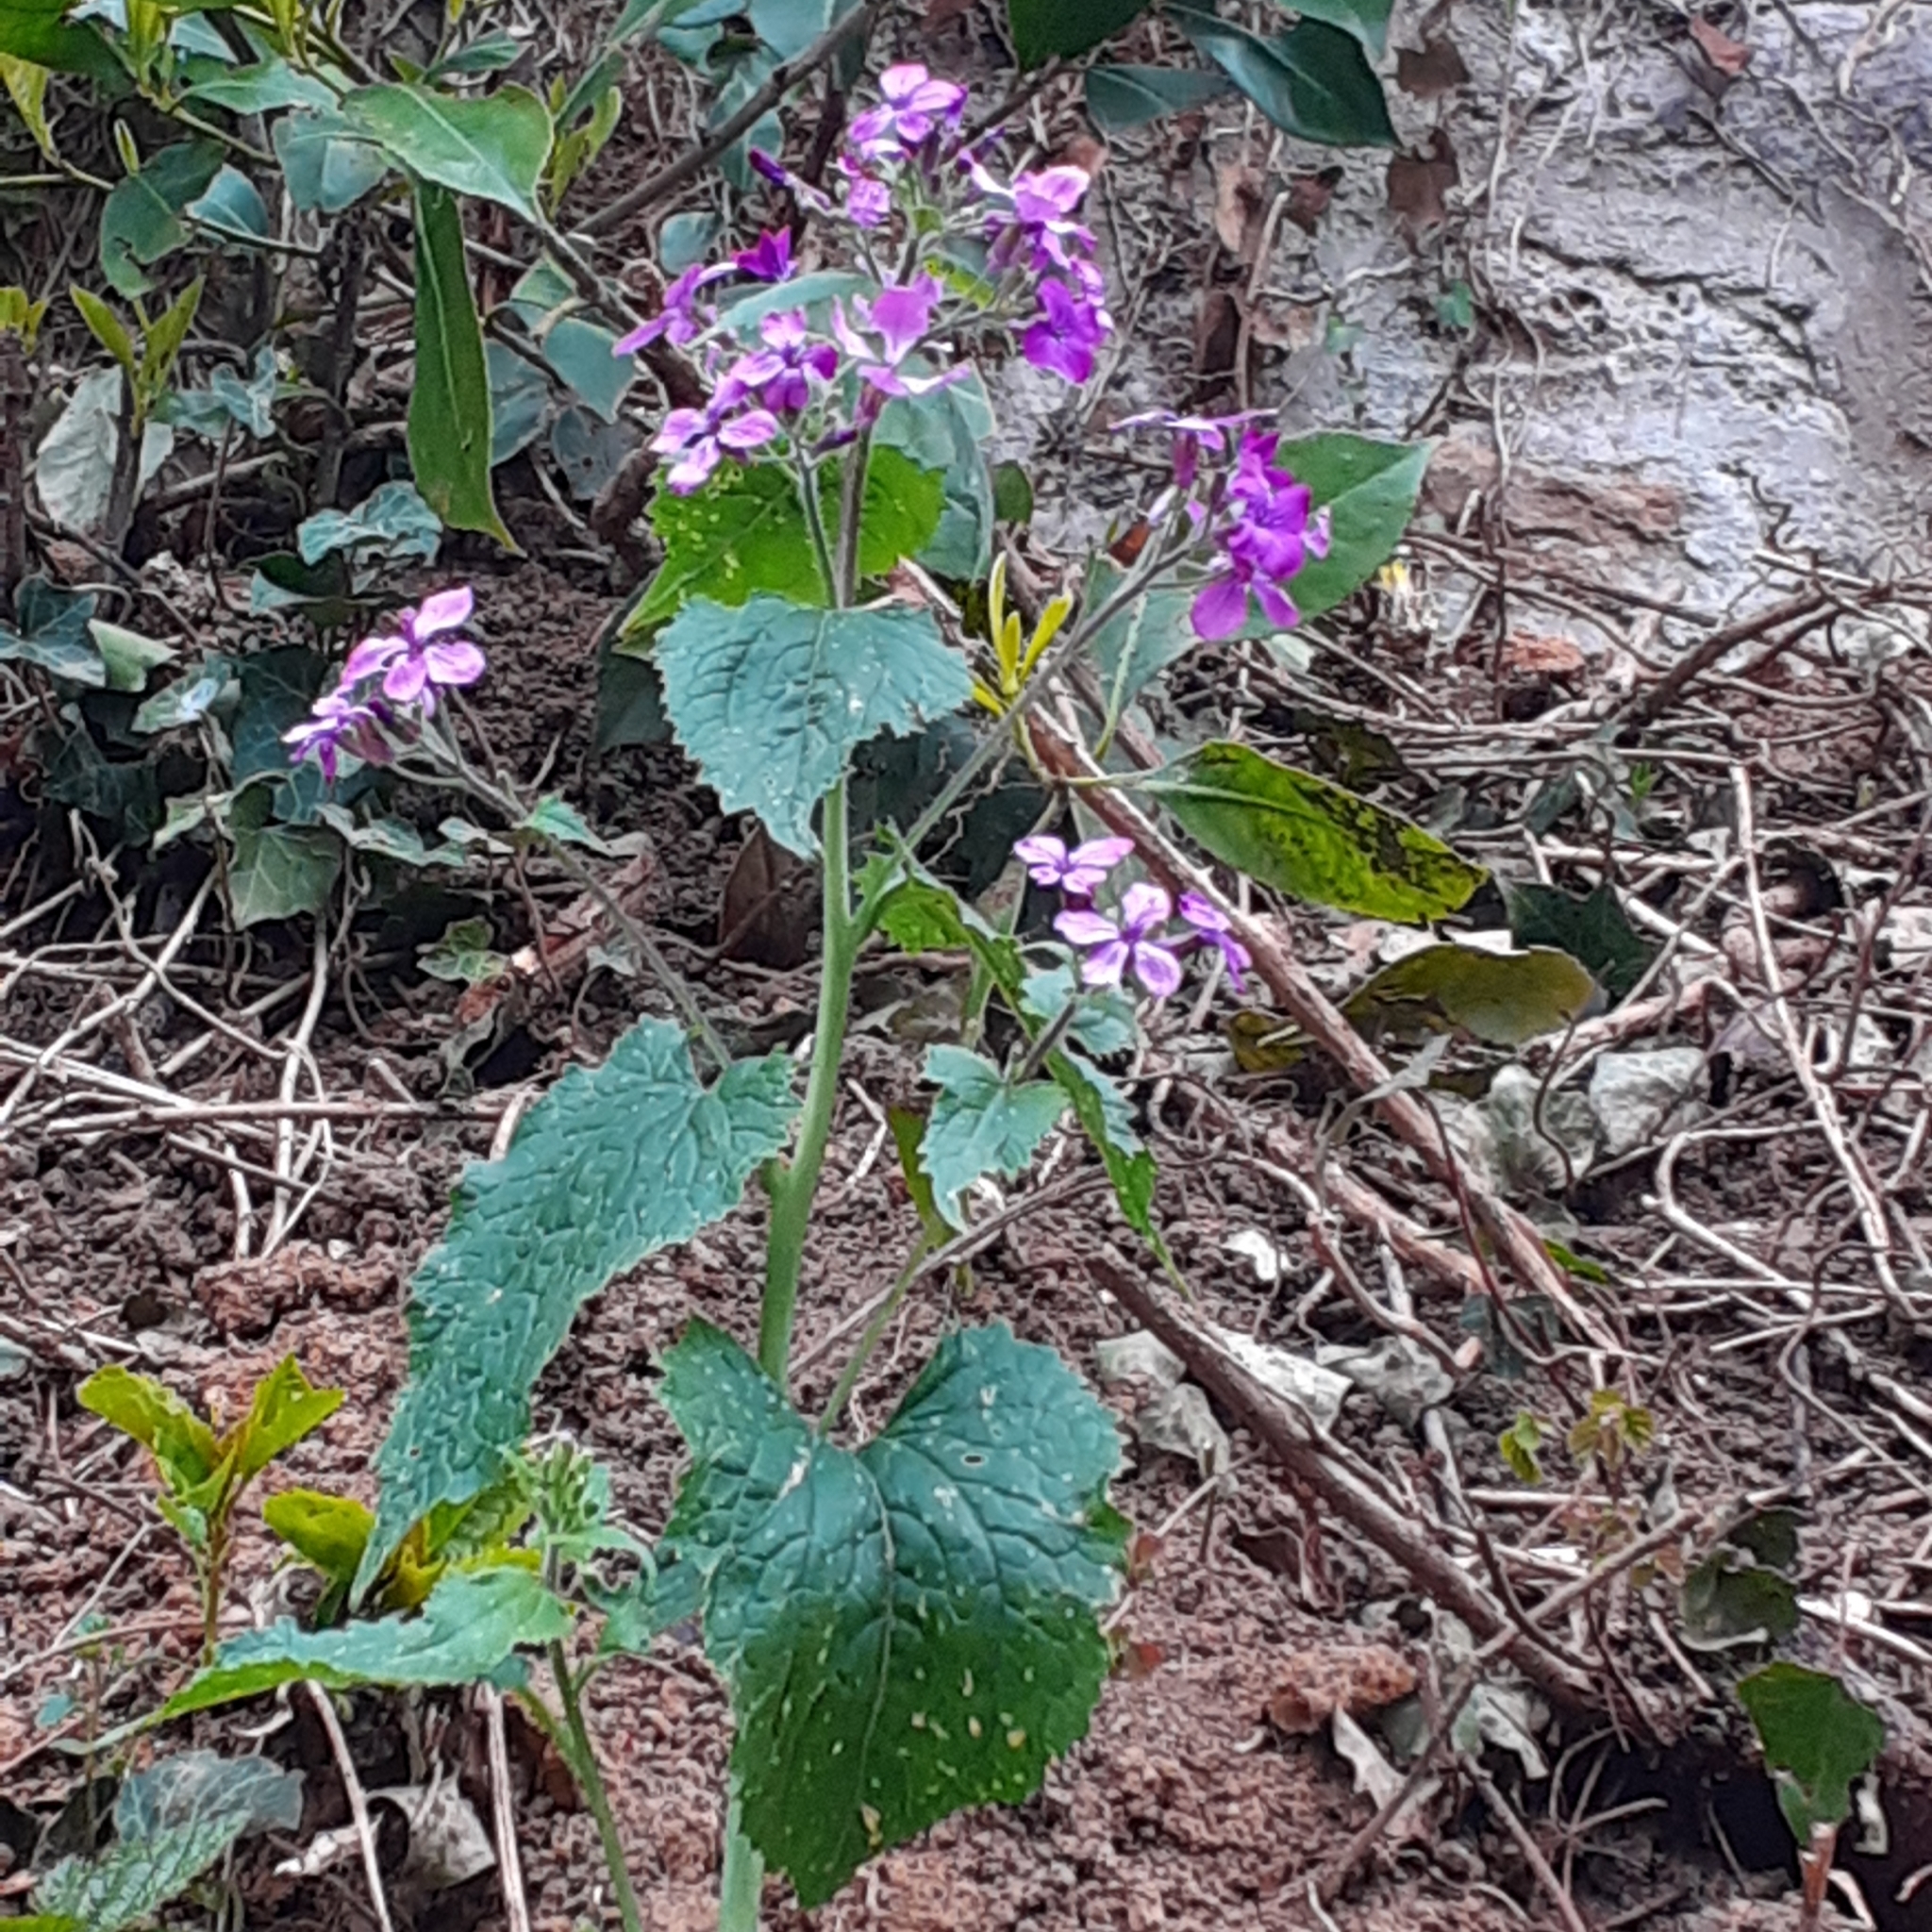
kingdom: Plantae
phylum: Tracheophyta
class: Magnoliopsida
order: Brassicales
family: Brassicaceae
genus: Lunaria
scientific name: Lunaria annua
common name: Honesty
